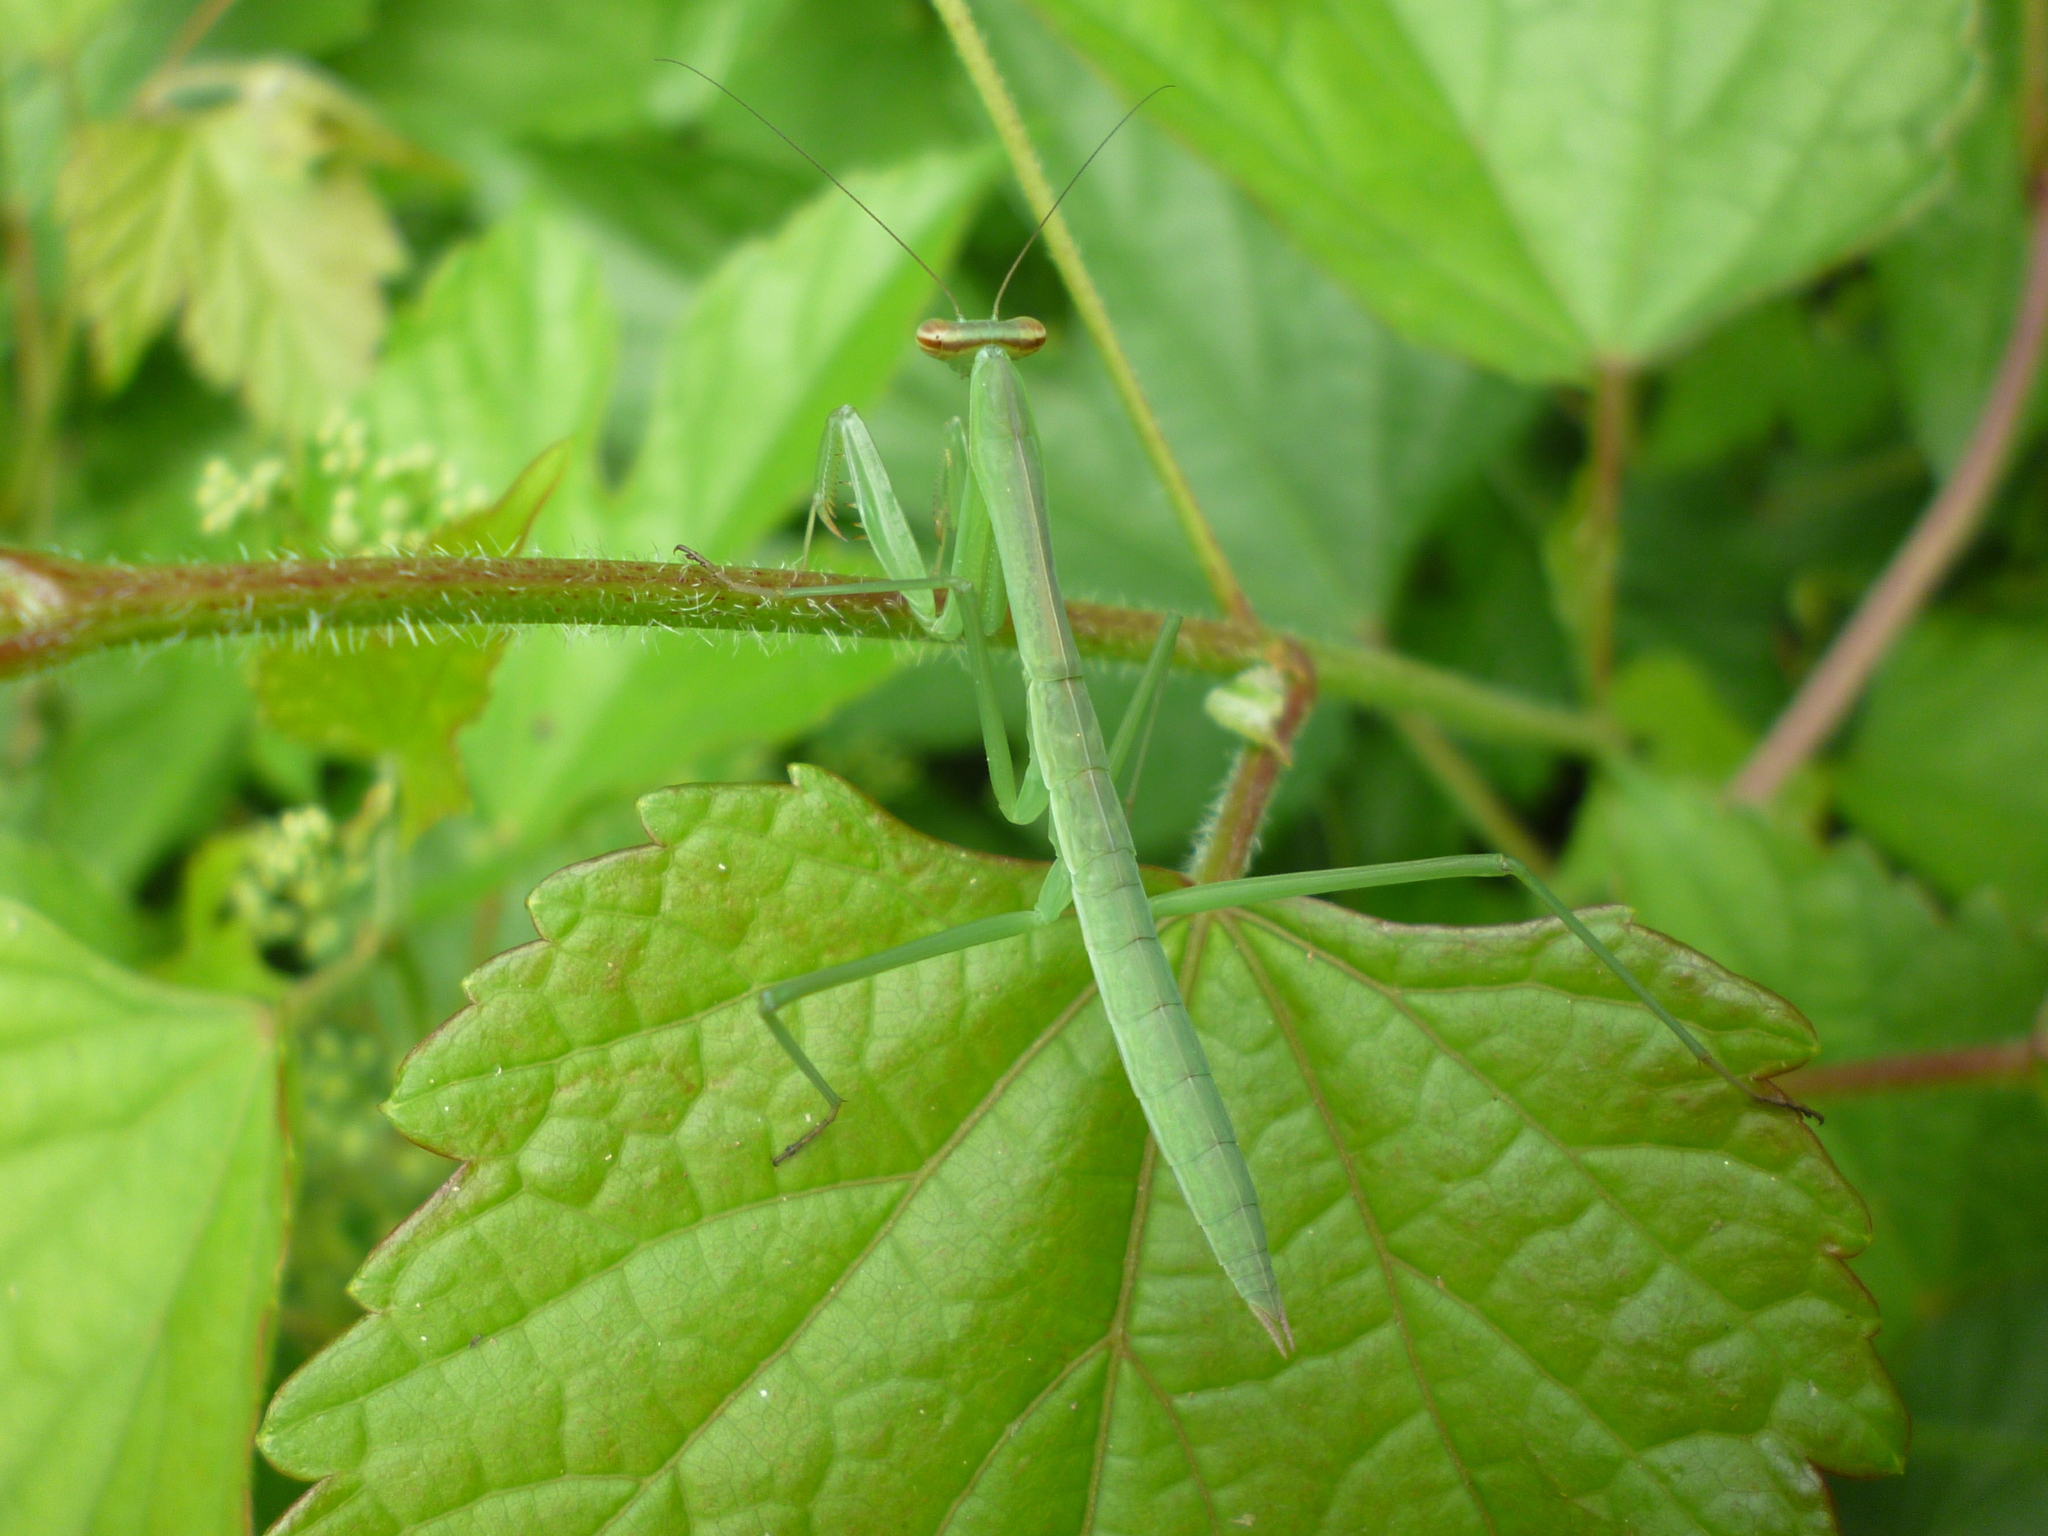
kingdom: Animalia
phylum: Arthropoda
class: Insecta
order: Mantodea
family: Mantidae
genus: Tenodera
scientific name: Tenodera sinensis
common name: Chinese mantis
